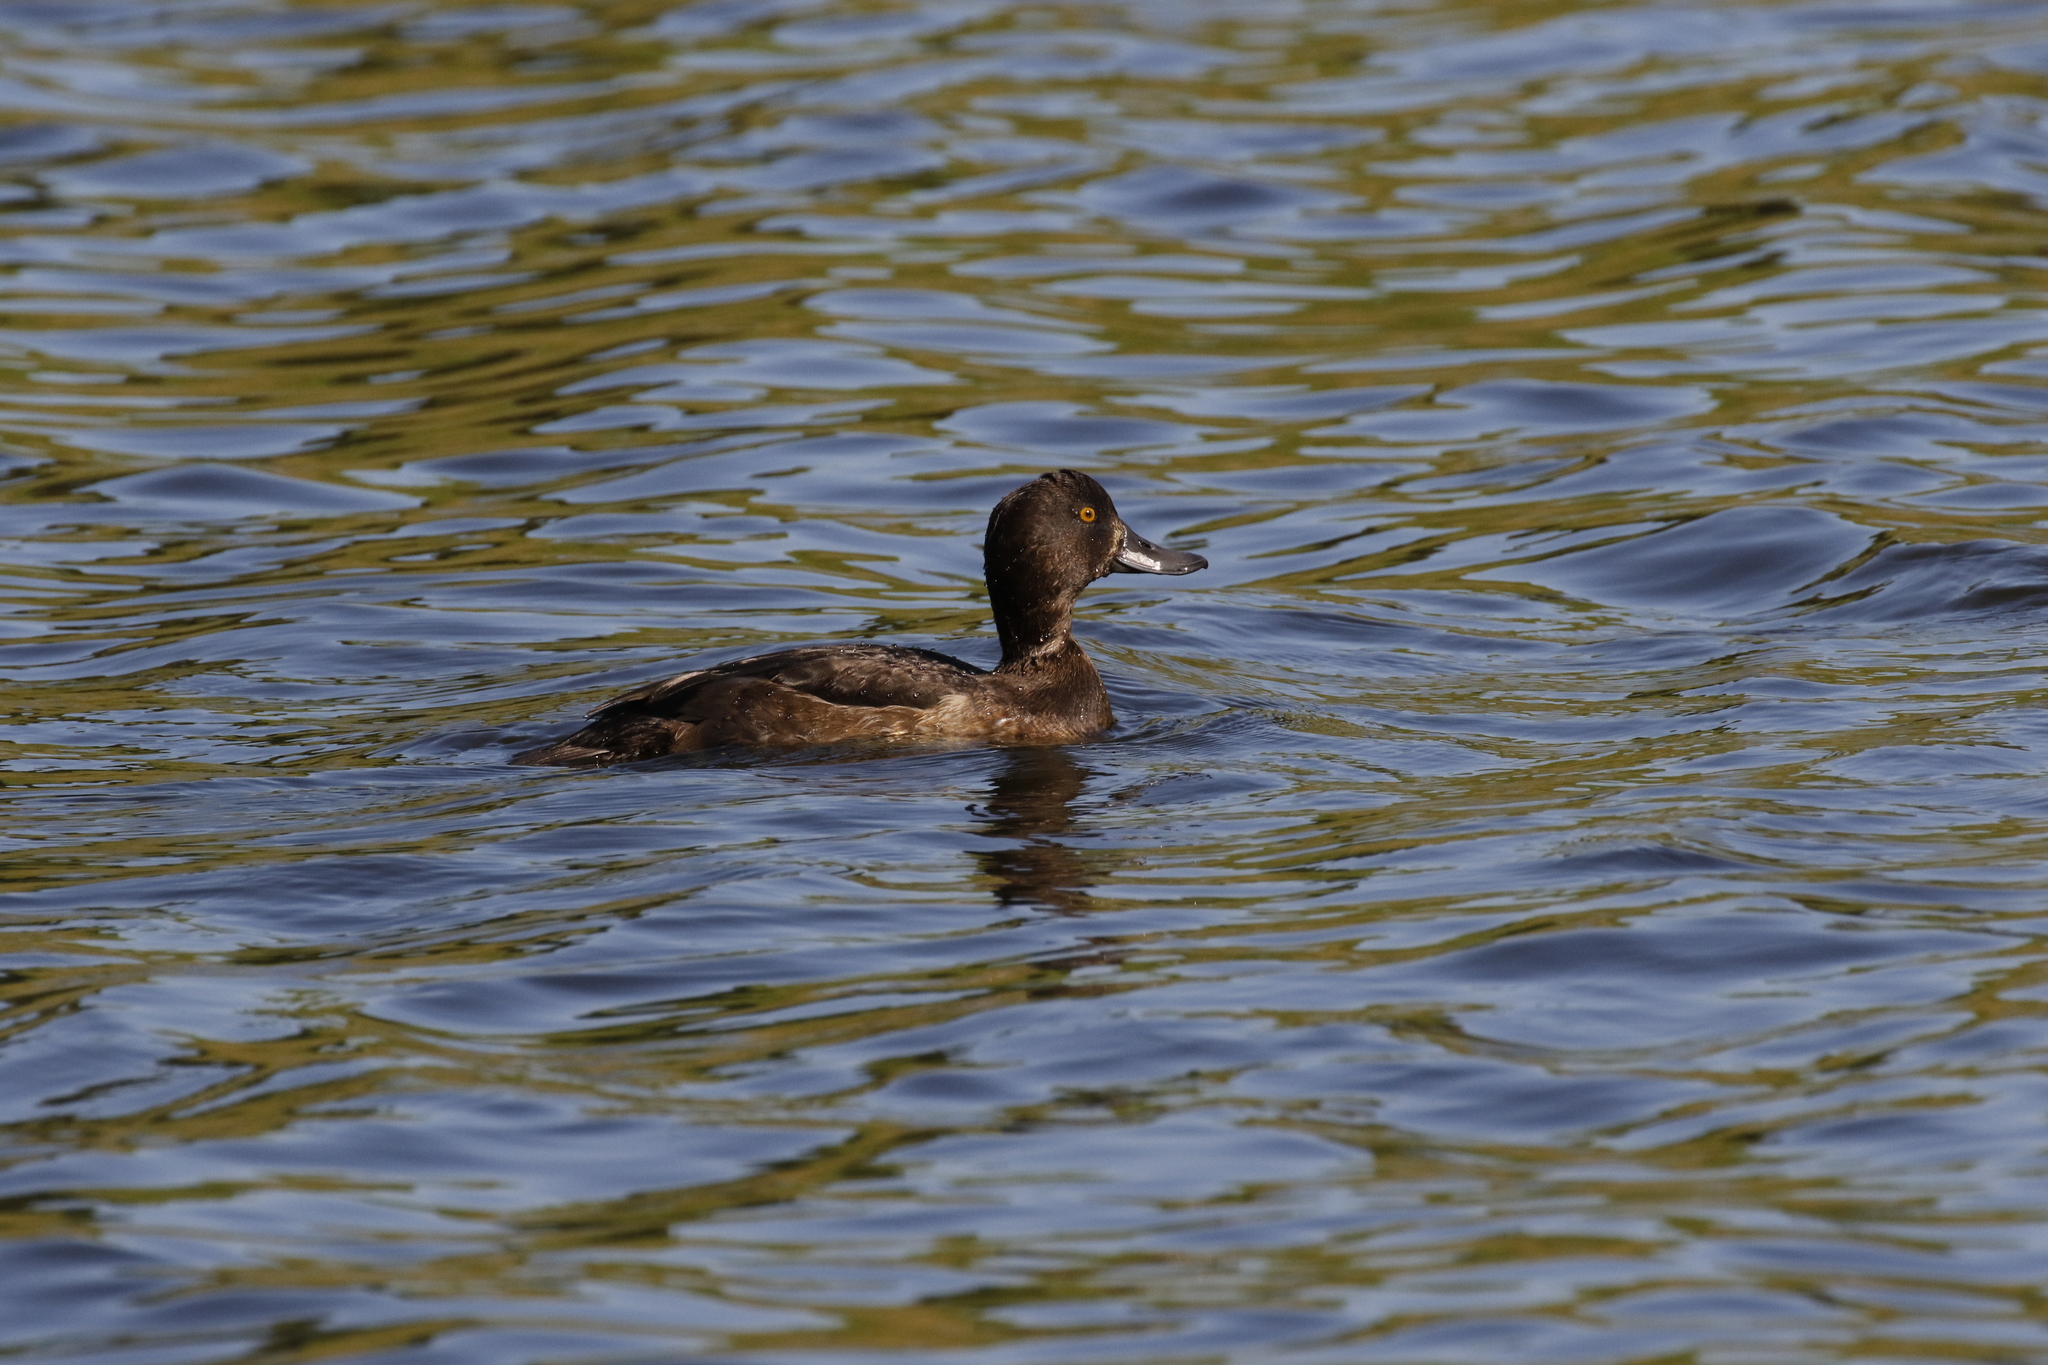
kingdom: Animalia
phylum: Chordata
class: Aves
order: Anseriformes
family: Anatidae
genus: Aythya
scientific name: Aythya fuligula
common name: Tufted duck
